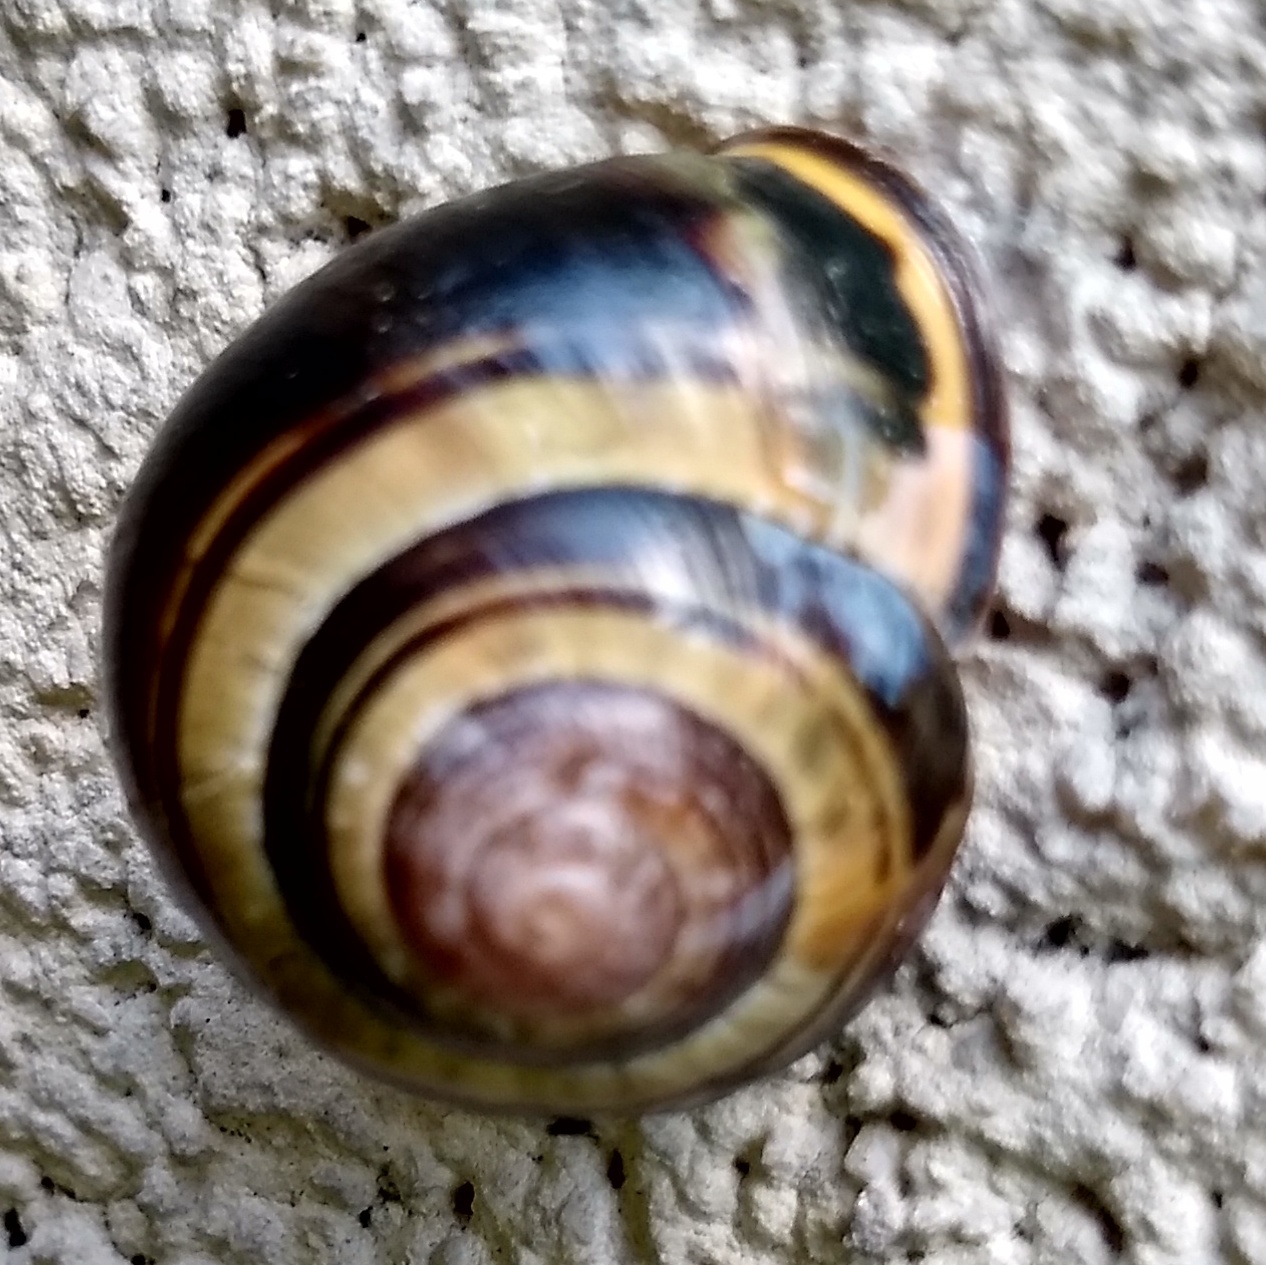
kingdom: Animalia
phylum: Mollusca
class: Gastropoda
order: Stylommatophora
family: Helicidae
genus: Cepaea
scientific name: Cepaea nemoralis
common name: Grovesnail
